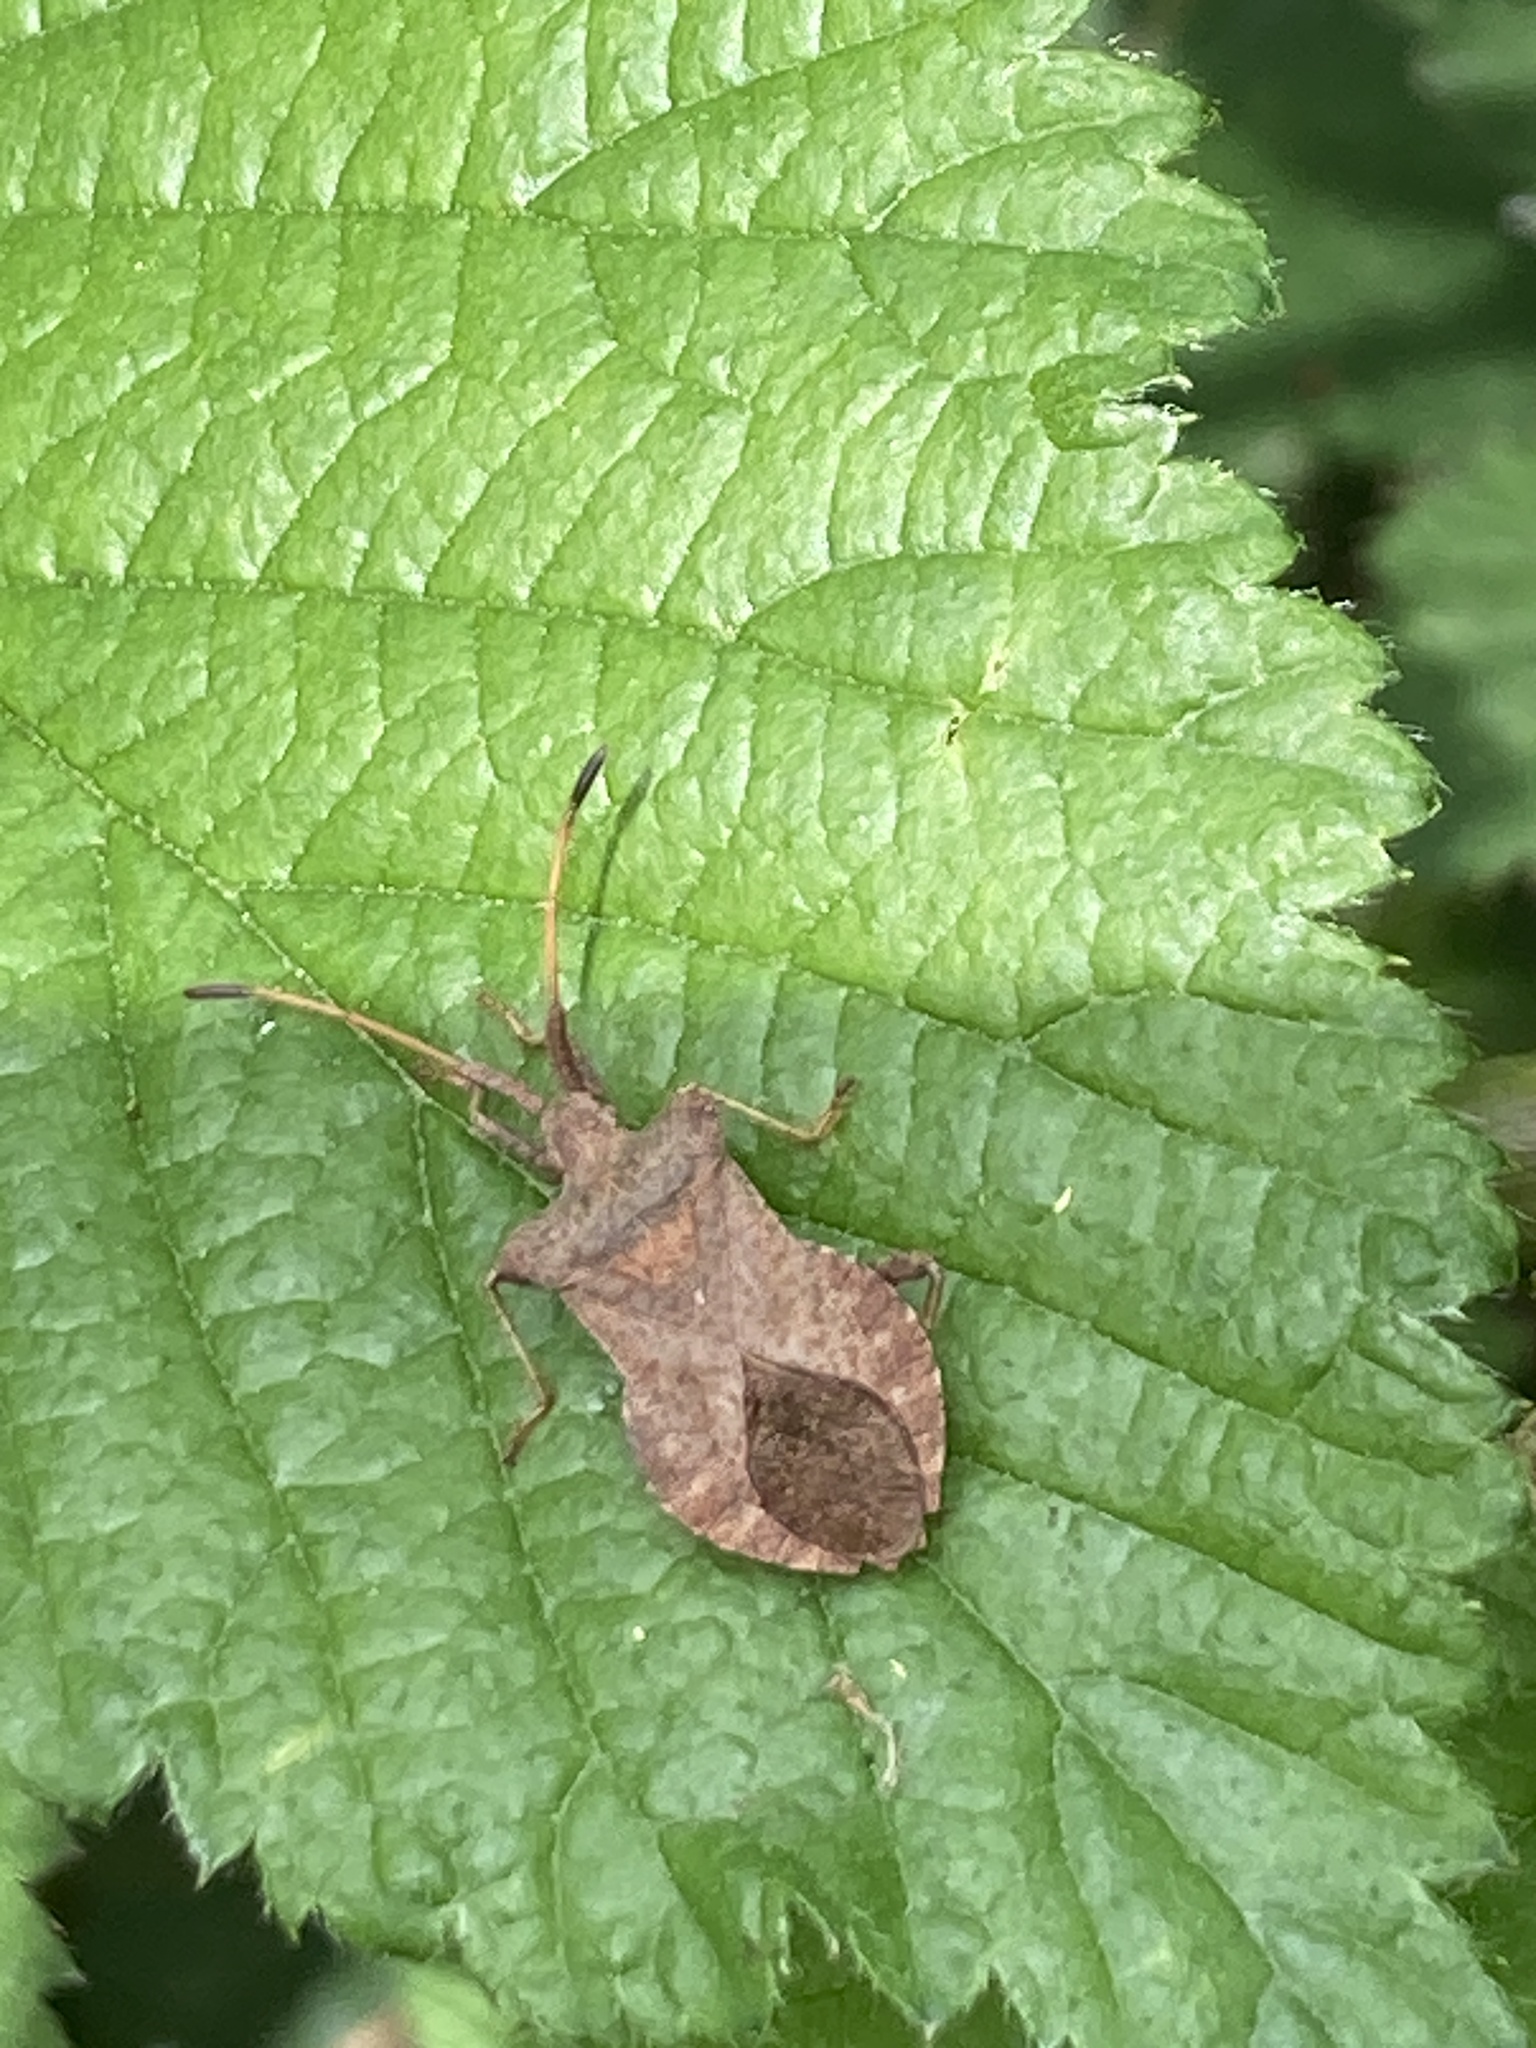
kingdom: Animalia
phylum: Arthropoda
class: Insecta
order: Hemiptera
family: Coreidae
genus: Coreus
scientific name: Coreus marginatus
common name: Dock bug
